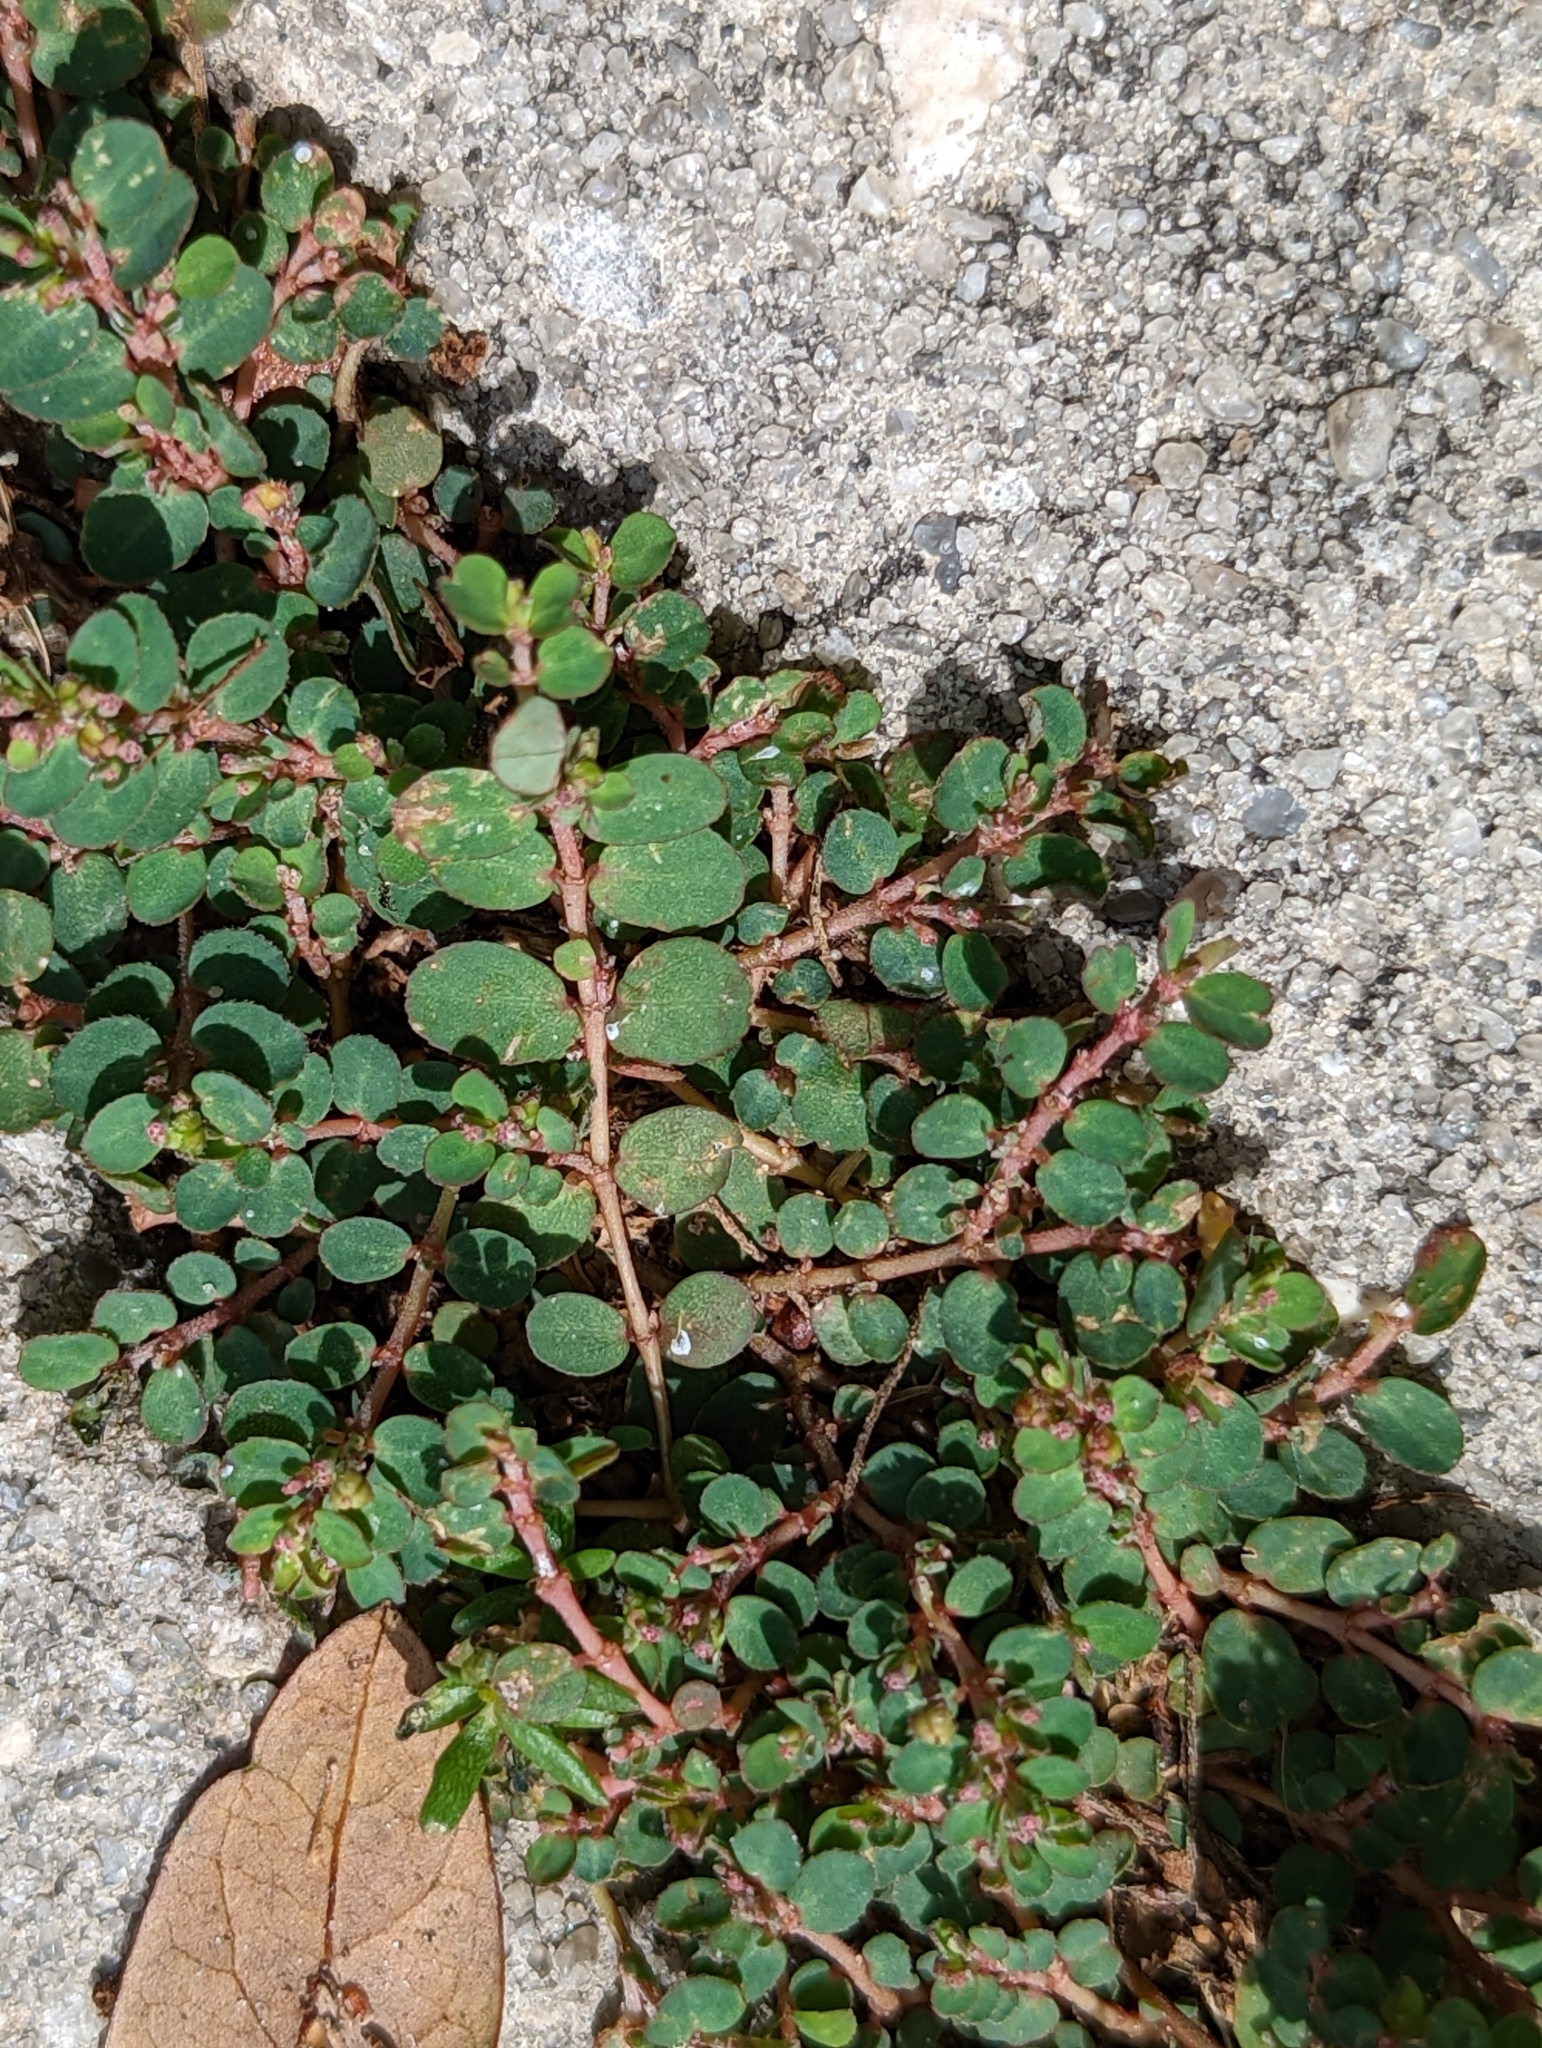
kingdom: Plantae
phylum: Tracheophyta
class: Magnoliopsida
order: Malpighiales
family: Euphorbiaceae
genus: Euphorbia
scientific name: Euphorbia prostrata
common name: Prostrate sandmat
